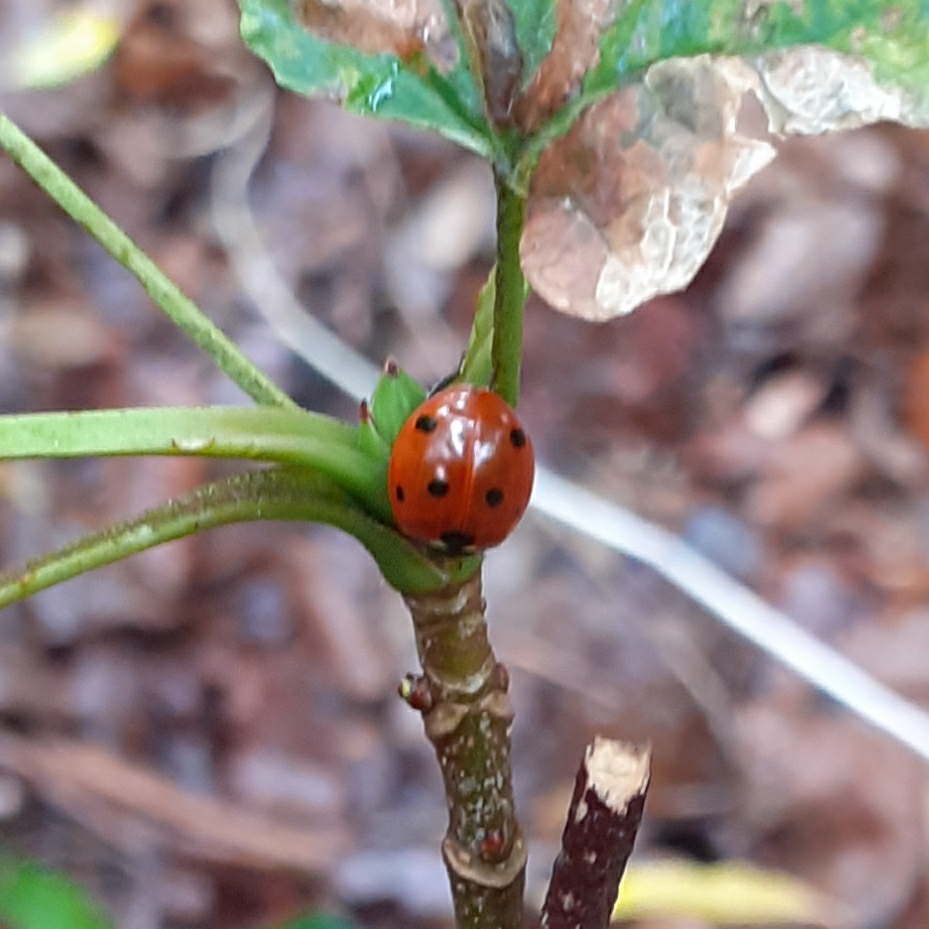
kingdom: Animalia
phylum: Arthropoda
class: Insecta
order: Coleoptera
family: Coccinellidae
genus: Coccinella
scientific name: Coccinella septempunctata
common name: Sevenspotted lady beetle
